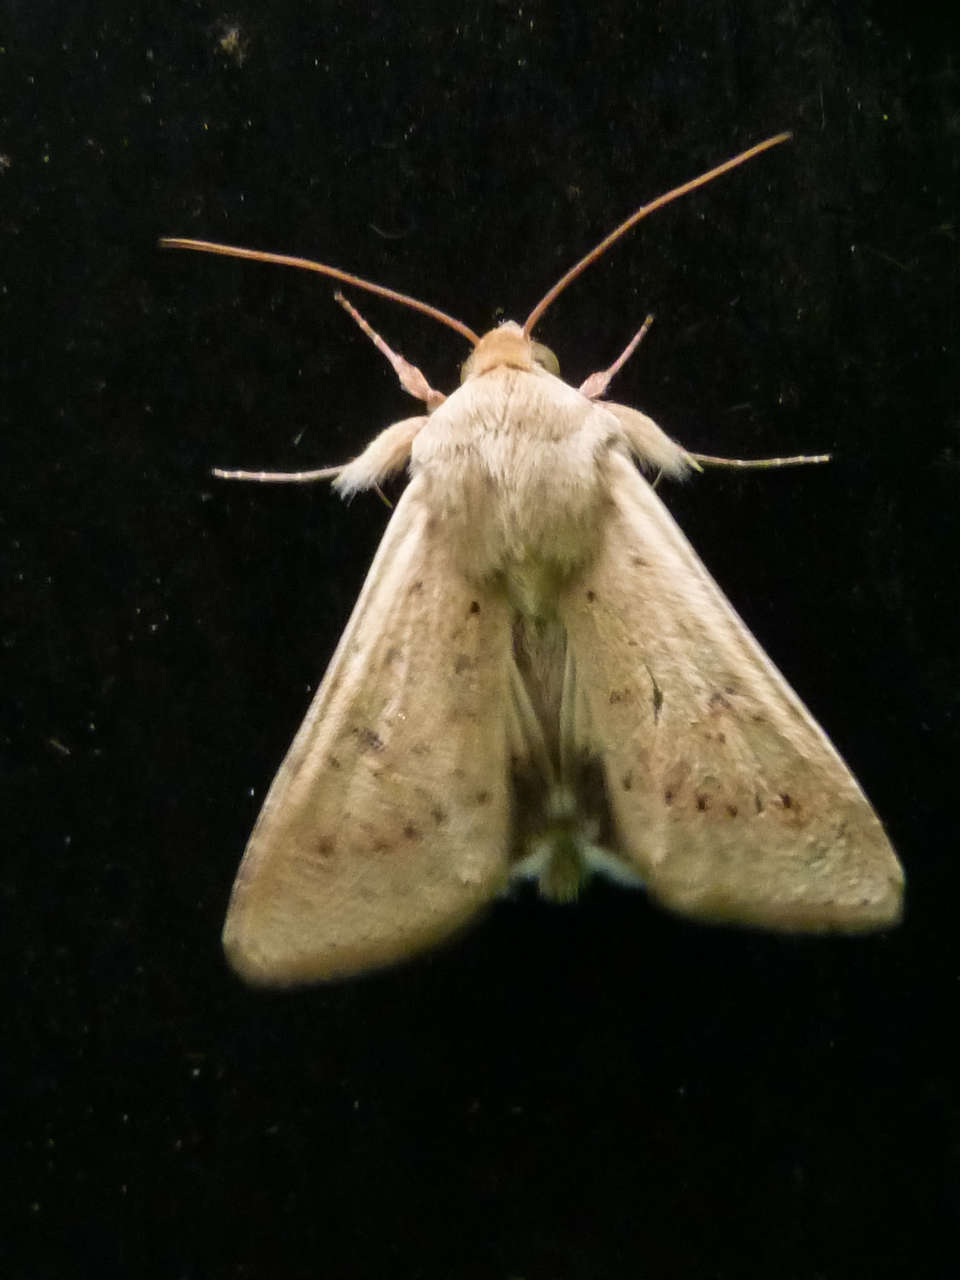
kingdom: Animalia
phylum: Arthropoda
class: Insecta
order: Lepidoptera
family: Noctuidae
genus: Helicoverpa
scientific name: Helicoverpa punctigera
